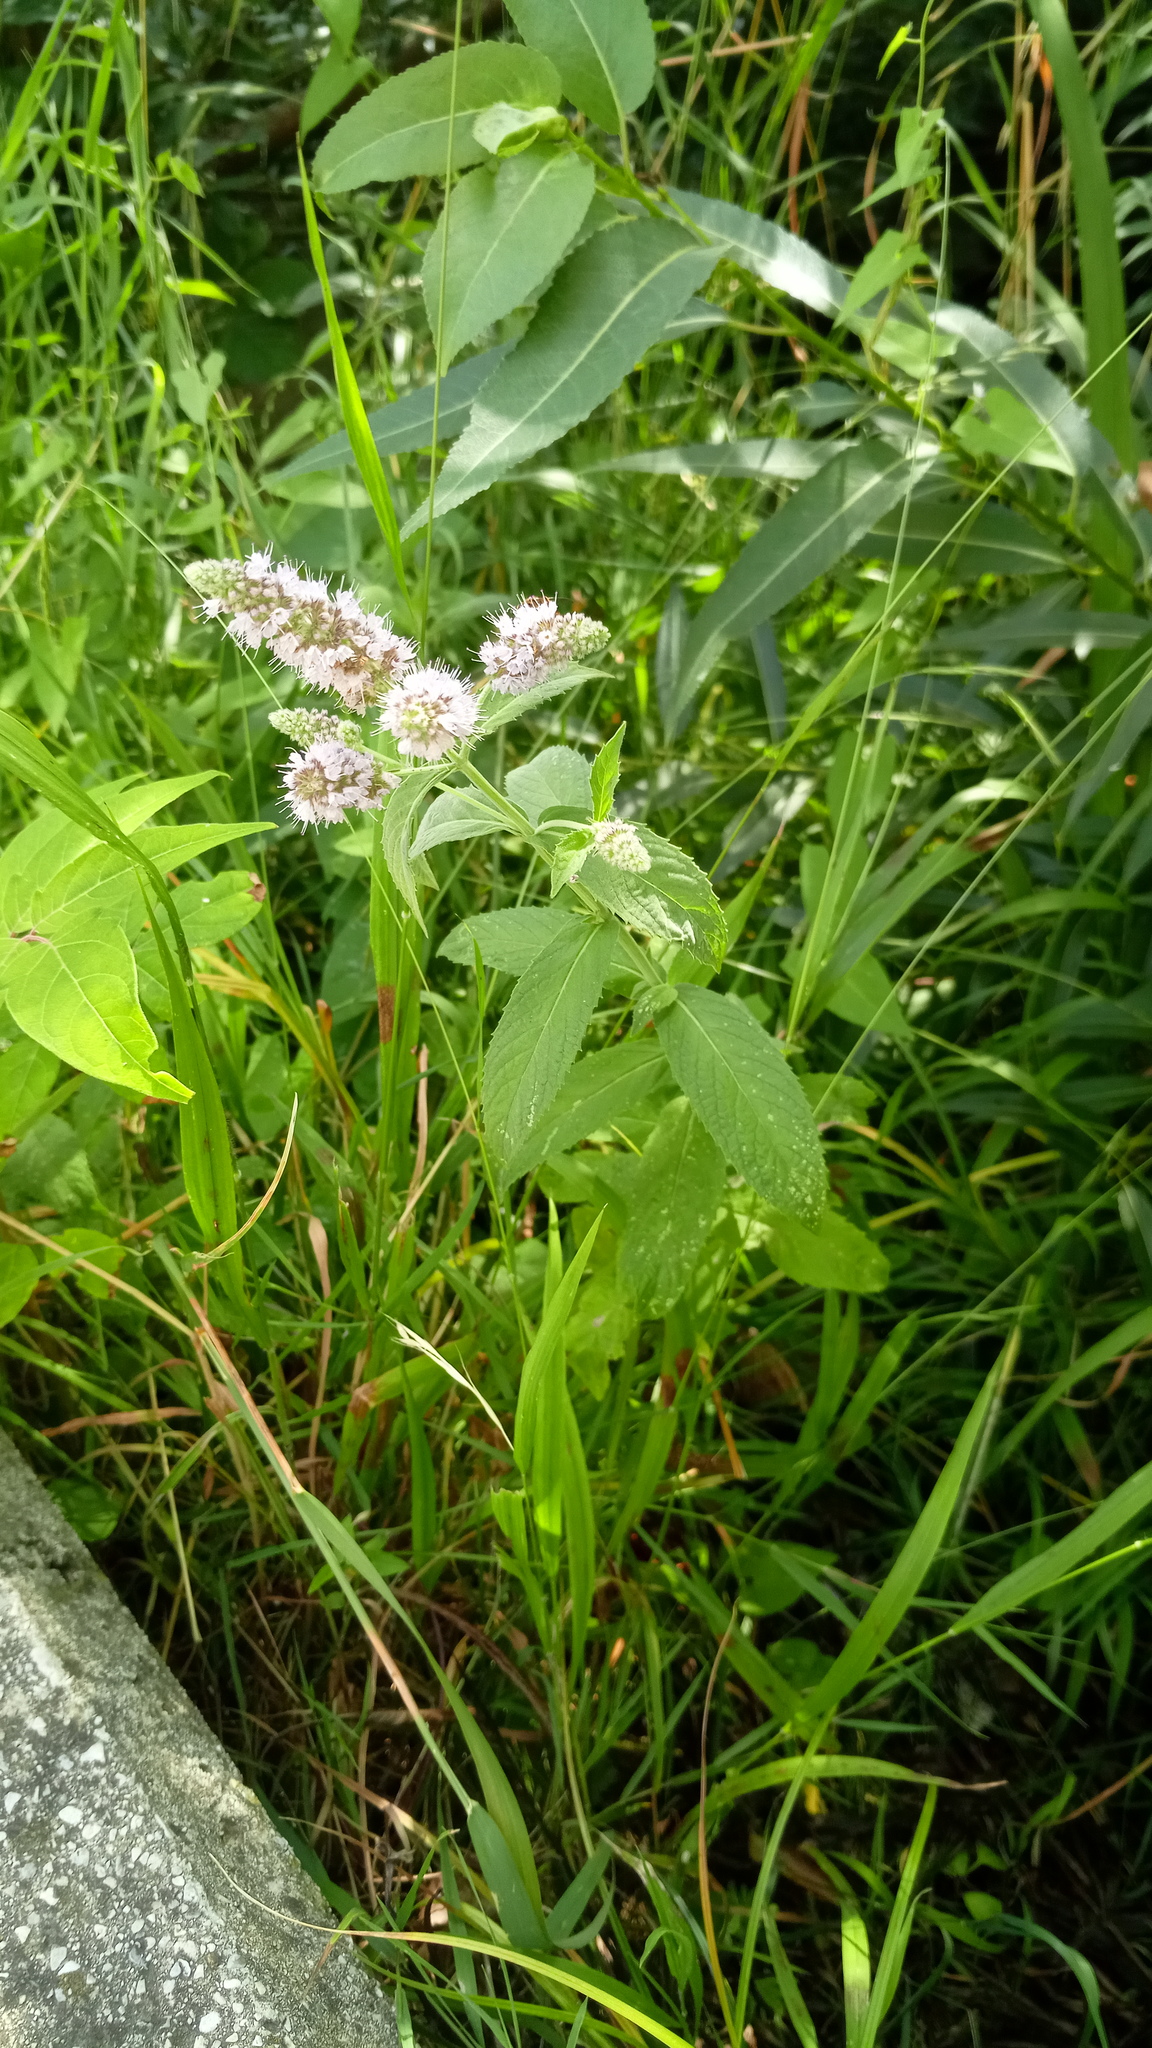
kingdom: Plantae
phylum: Tracheophyta
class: Magnoliopsida
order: Lamiales
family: Lamiaceae
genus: Mentha
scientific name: Mentha longifolia
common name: Horse mint
